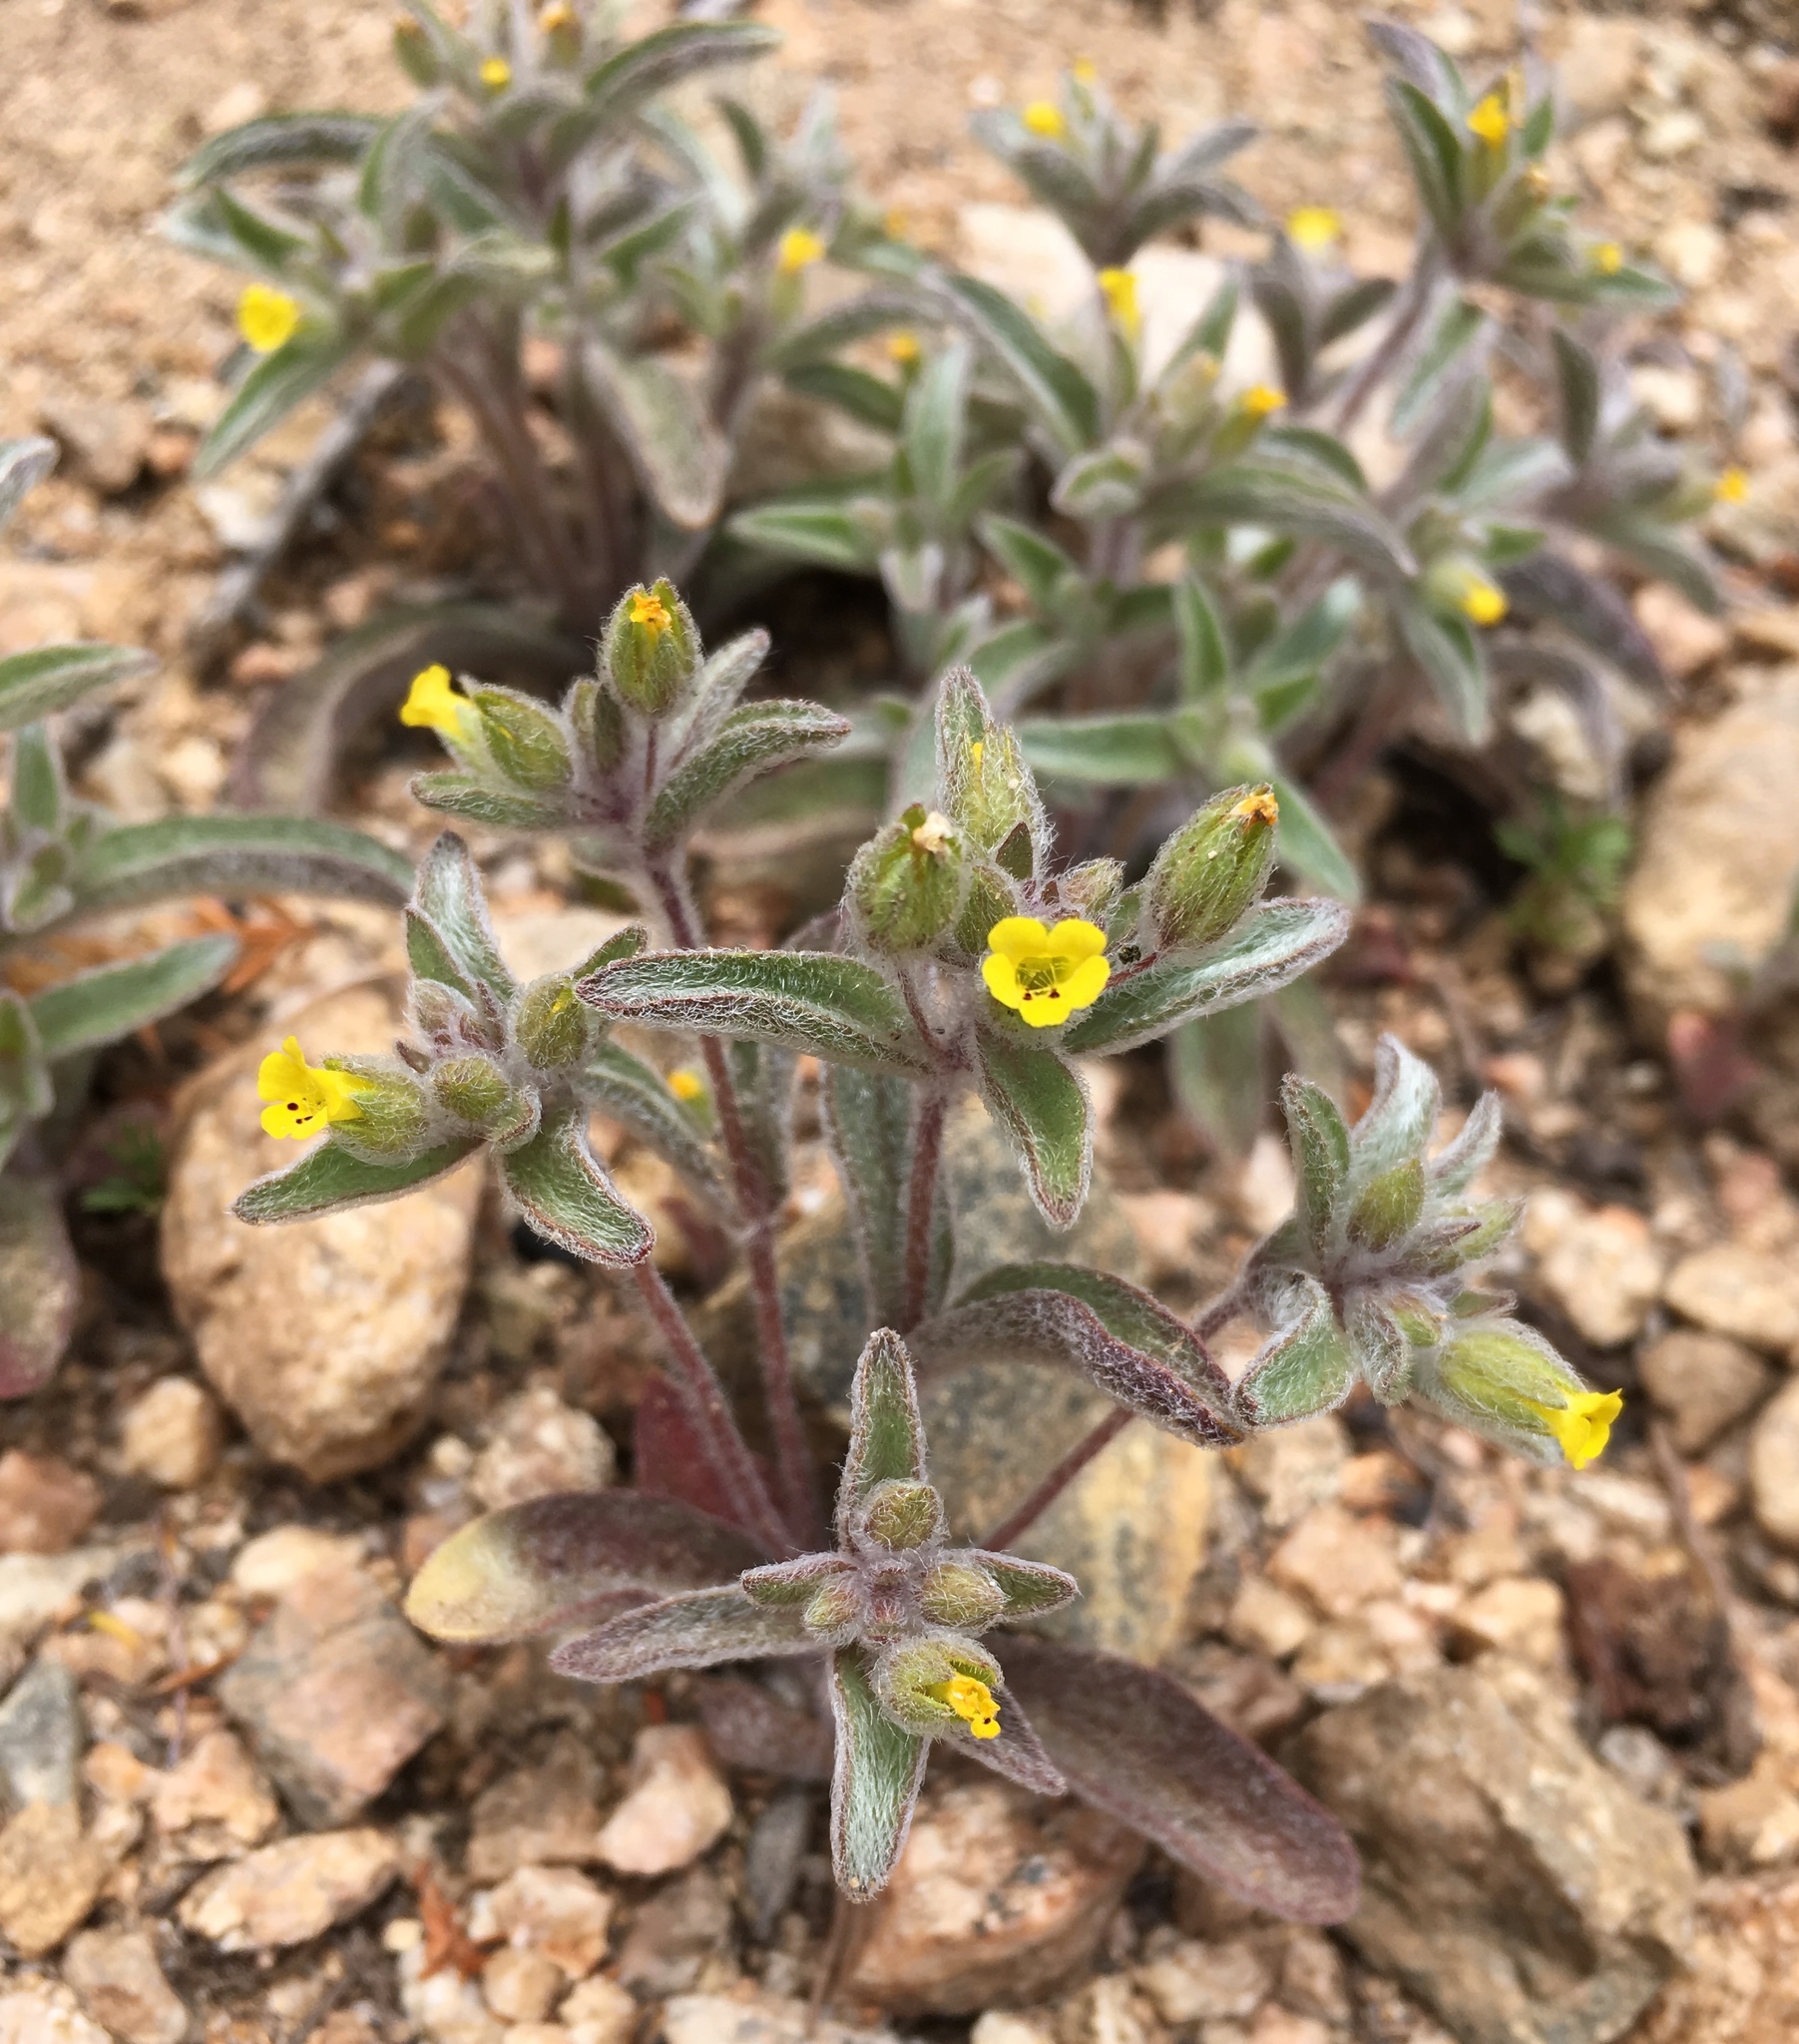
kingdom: Plantae
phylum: Tracheophyta
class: Magnoliopsida
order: Lamiales
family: Phrymaceae
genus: Mimetanthe
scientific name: Mimetanthe pilosa
